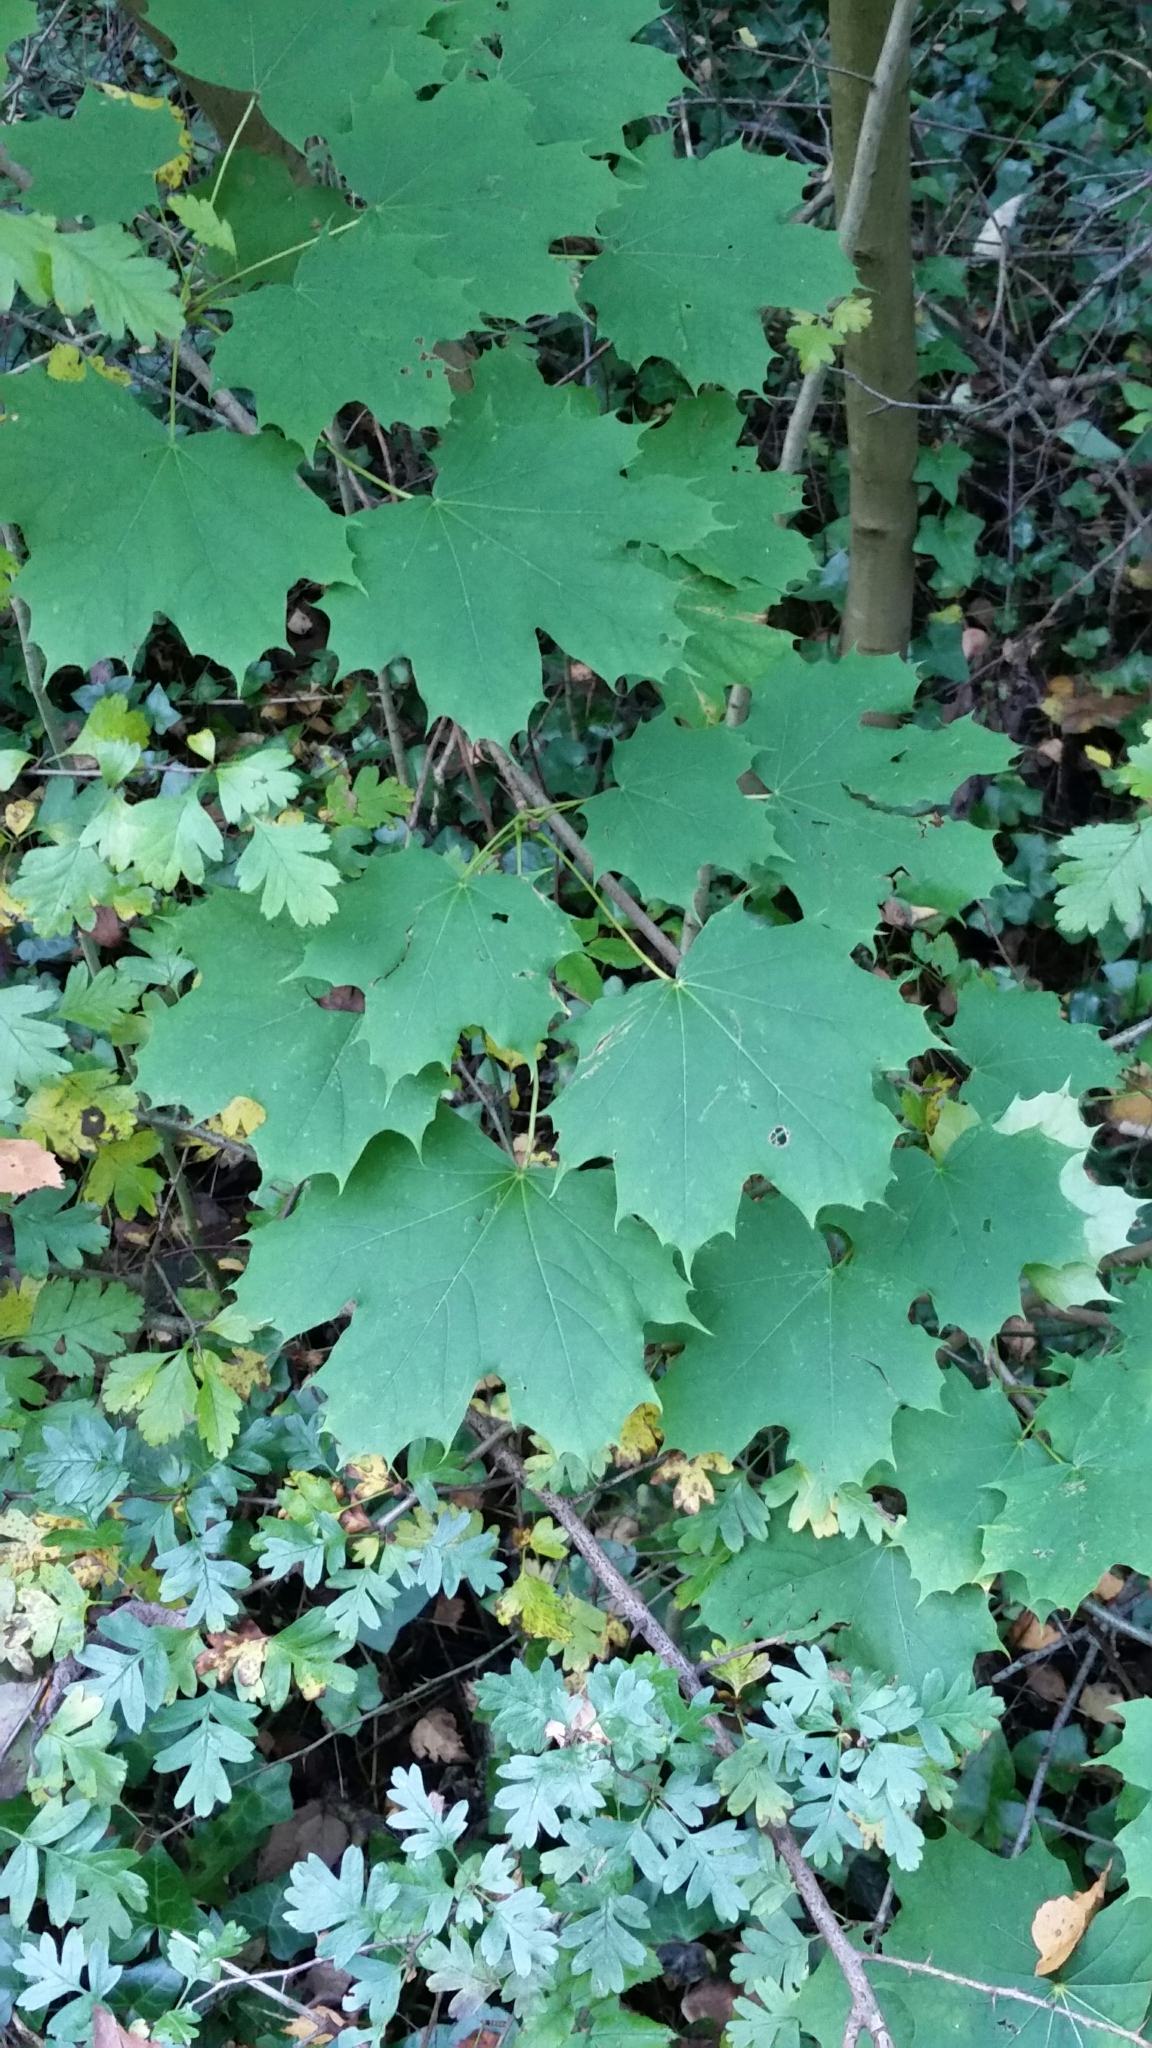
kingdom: Plantae
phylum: Tracheophyta
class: Magnoliopsida
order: Sapindales
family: Sapindaceae
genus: Acer
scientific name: Acer platanoides
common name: Norway maple
